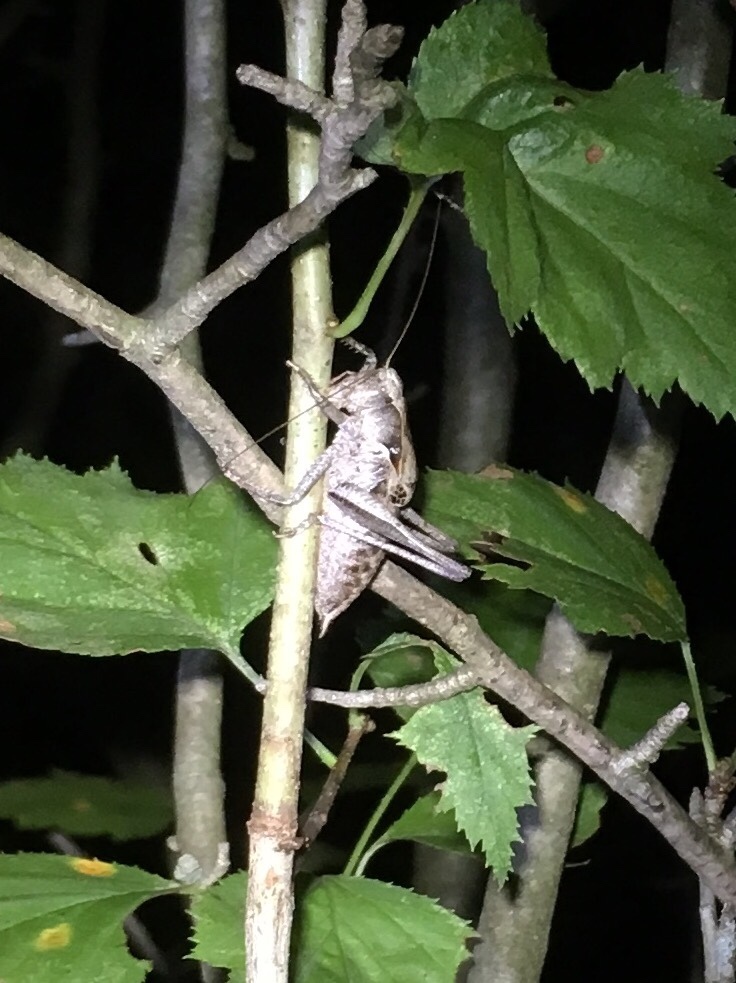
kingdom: Animalia
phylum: Arthropoda
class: Insecta
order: Orthoptera
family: Tettigoniidae
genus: Atlanticus
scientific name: Atlanticus davisi
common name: Davis's shield-bearer
